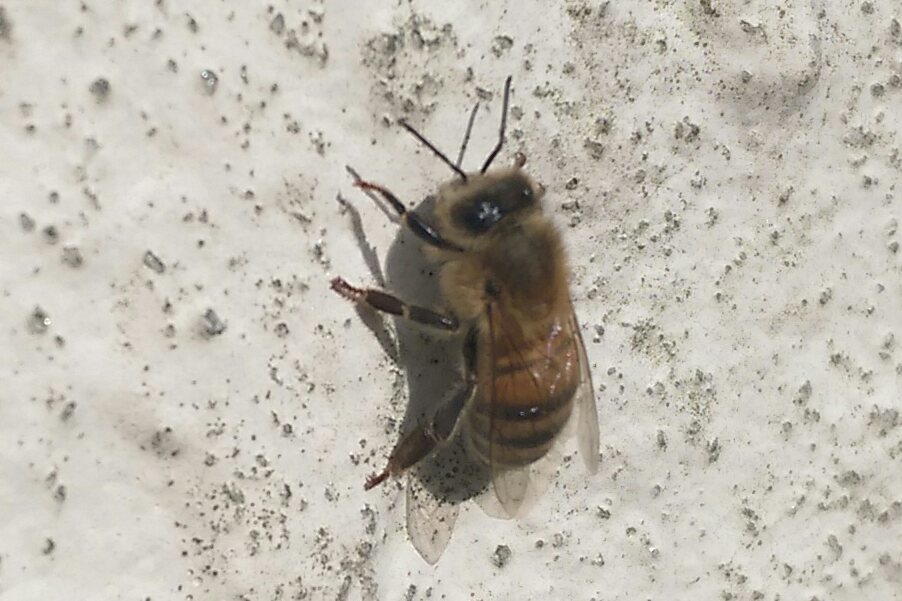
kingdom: Animalia
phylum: Arthropoda
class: Insecta
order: Hymenoptera
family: Apidae
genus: Apis
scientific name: Apis mellifera
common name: Honey bee
